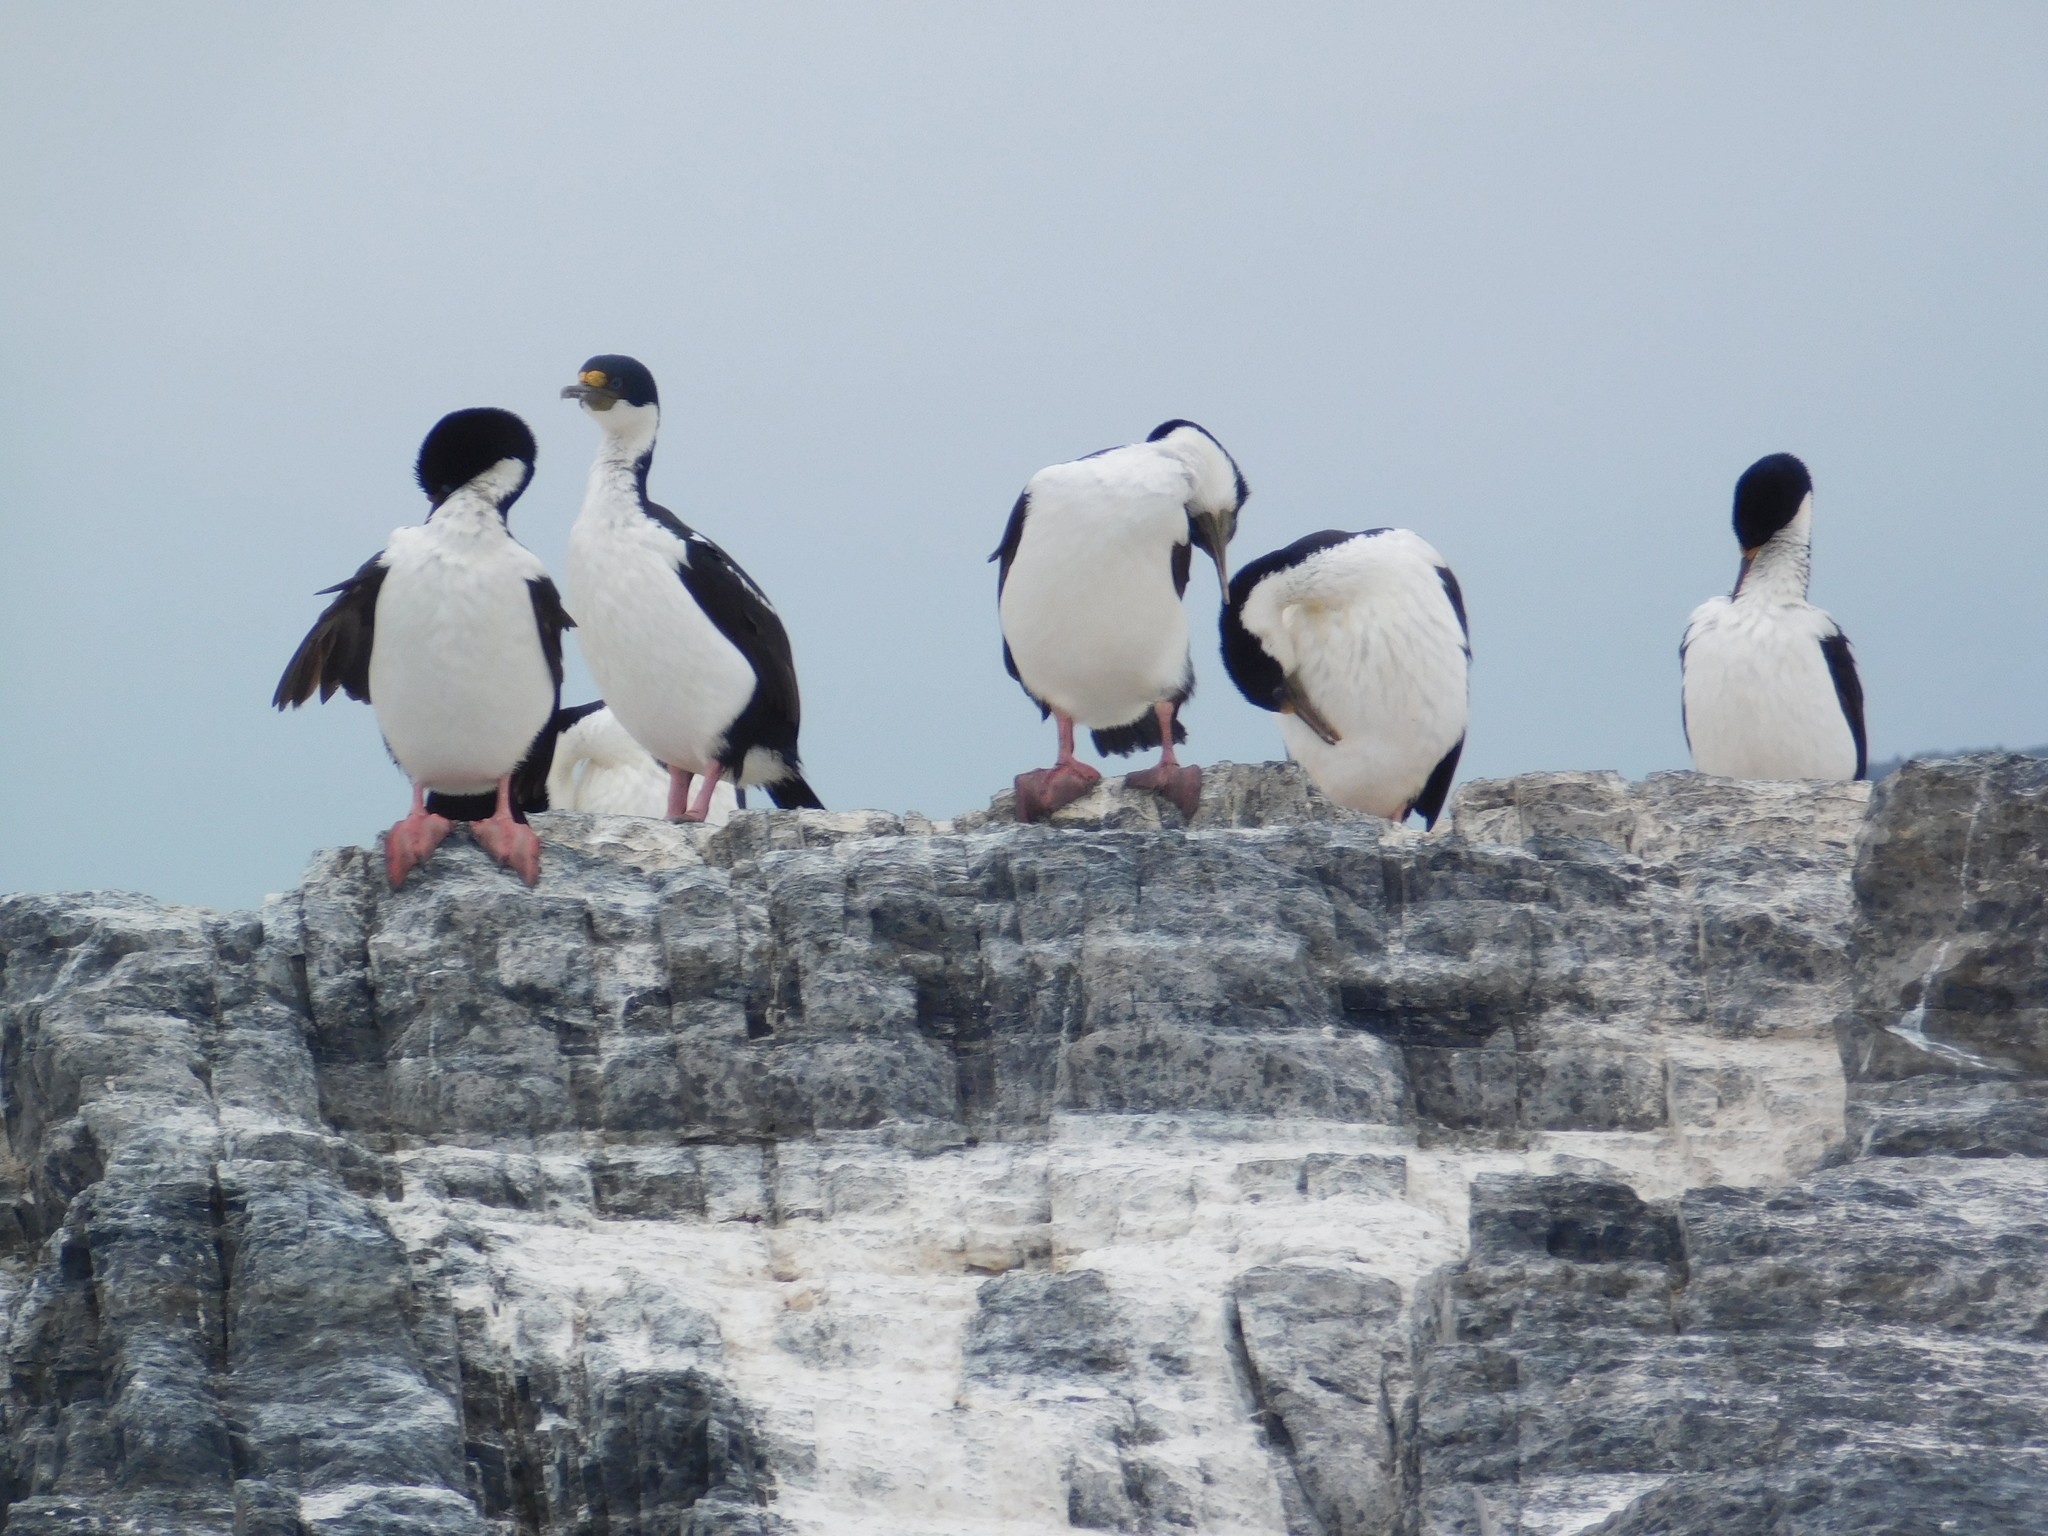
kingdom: Animalia
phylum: Chordata
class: Aves
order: Suliformes
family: Phalacrocoracidae
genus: Leucocarbo
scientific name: Leucocarbo atriceps
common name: Imperial shag
